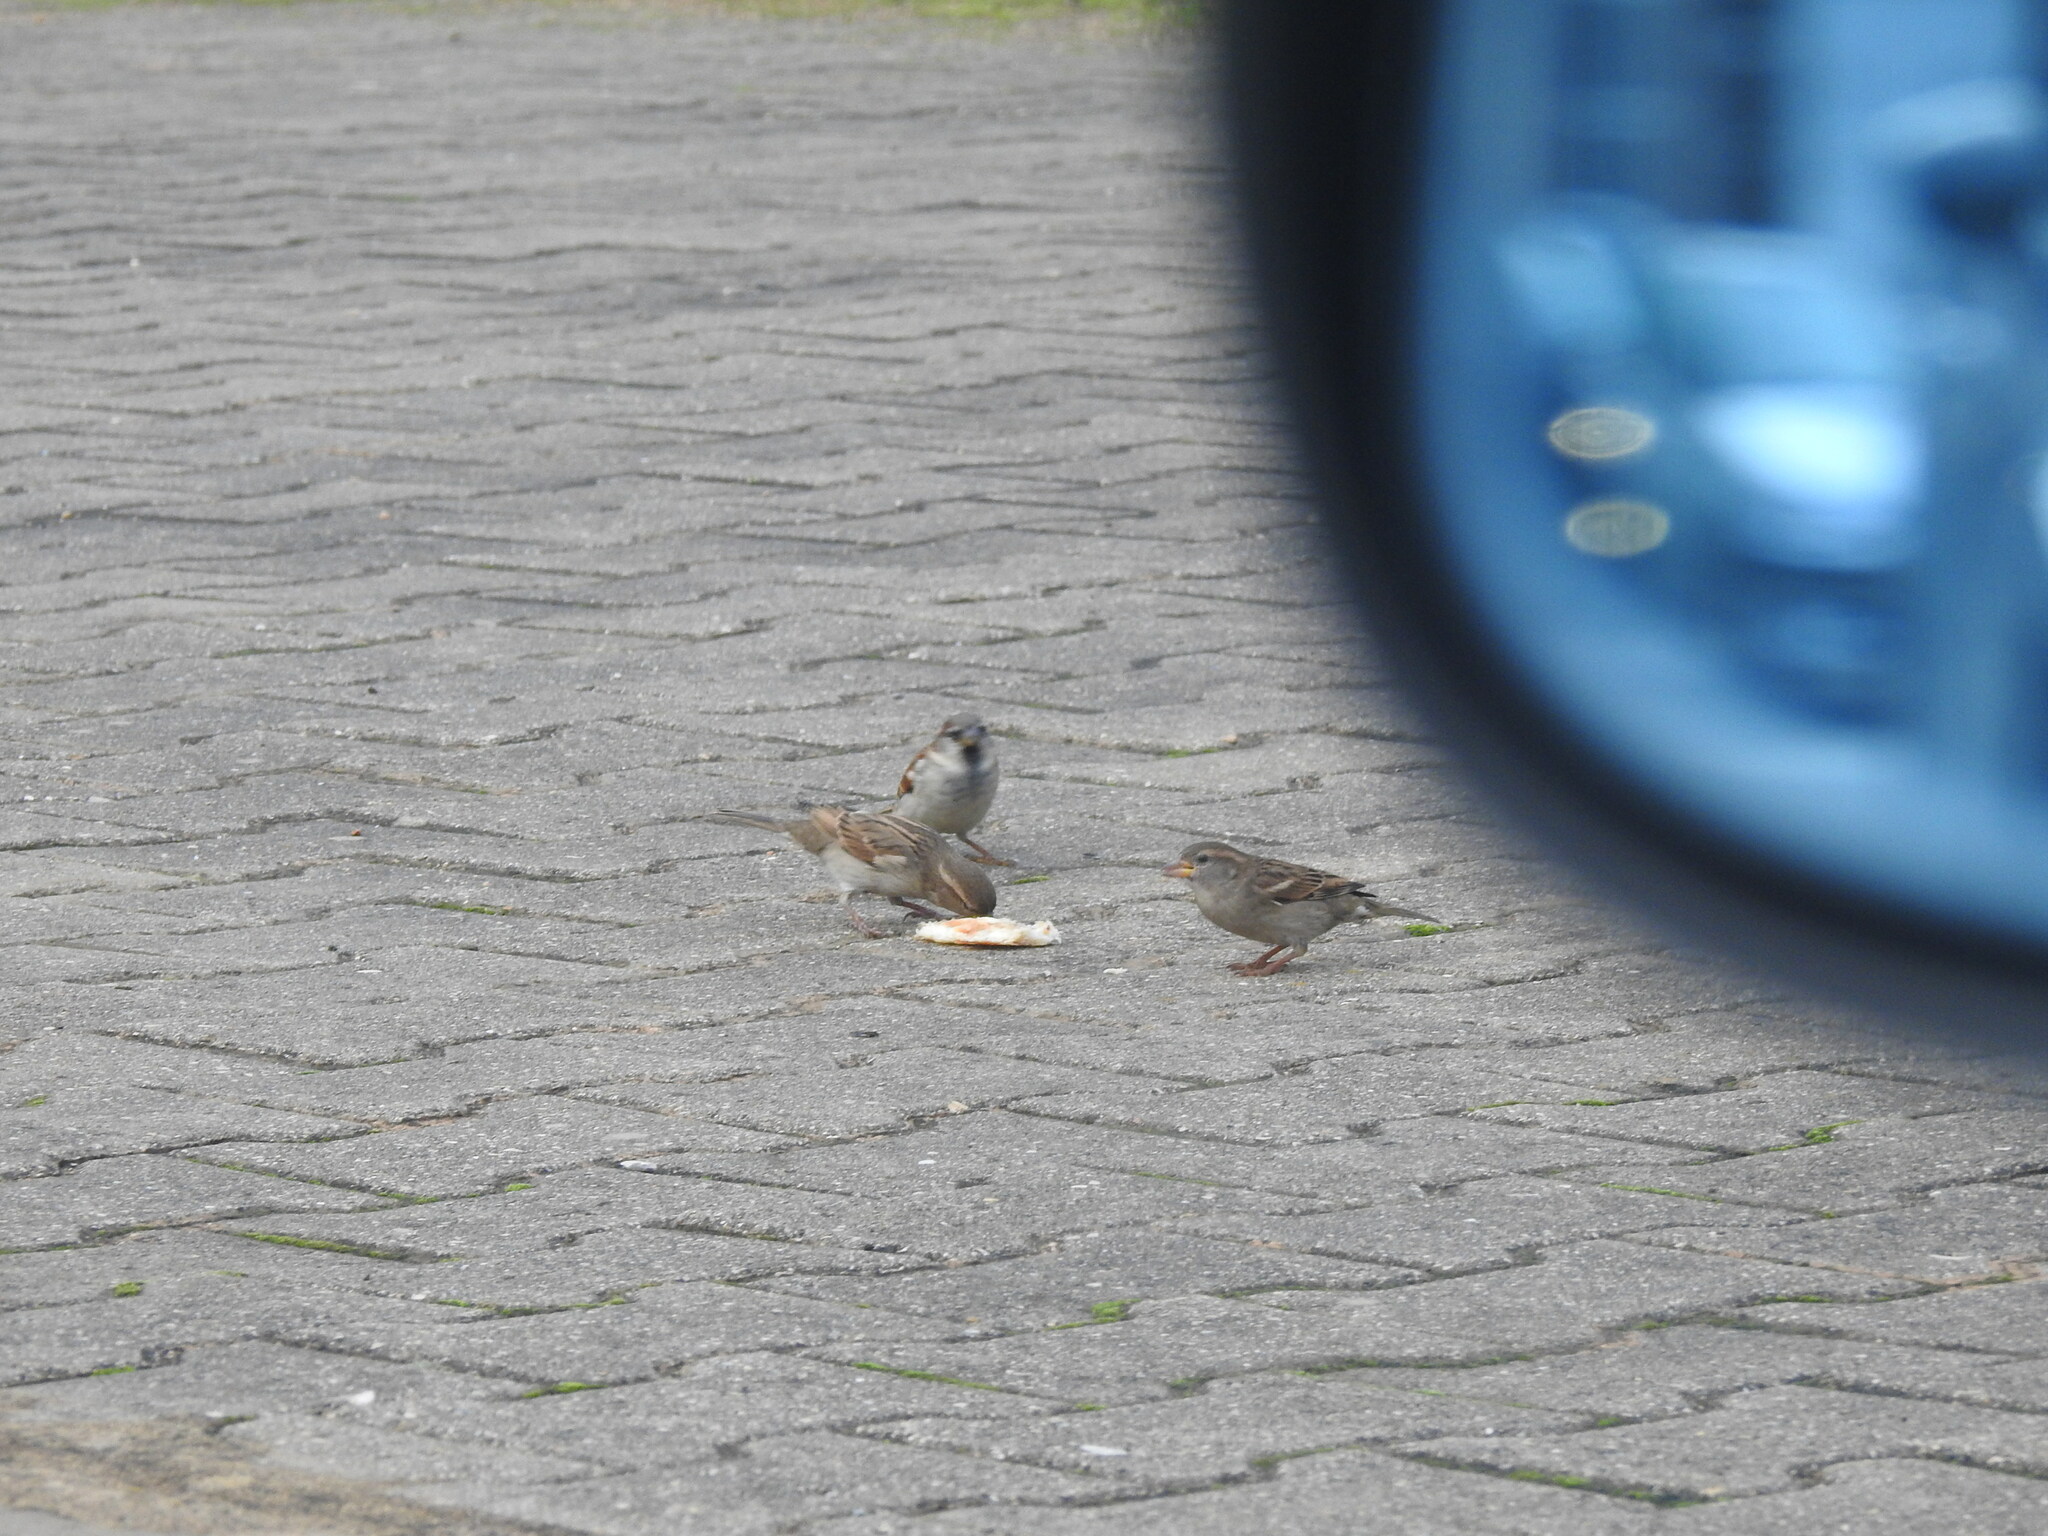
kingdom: Animalia
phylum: Chordata
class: Aves
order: Passeriformes
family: Passeridae
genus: Passer
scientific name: Passer domesticus
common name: House sparrow
